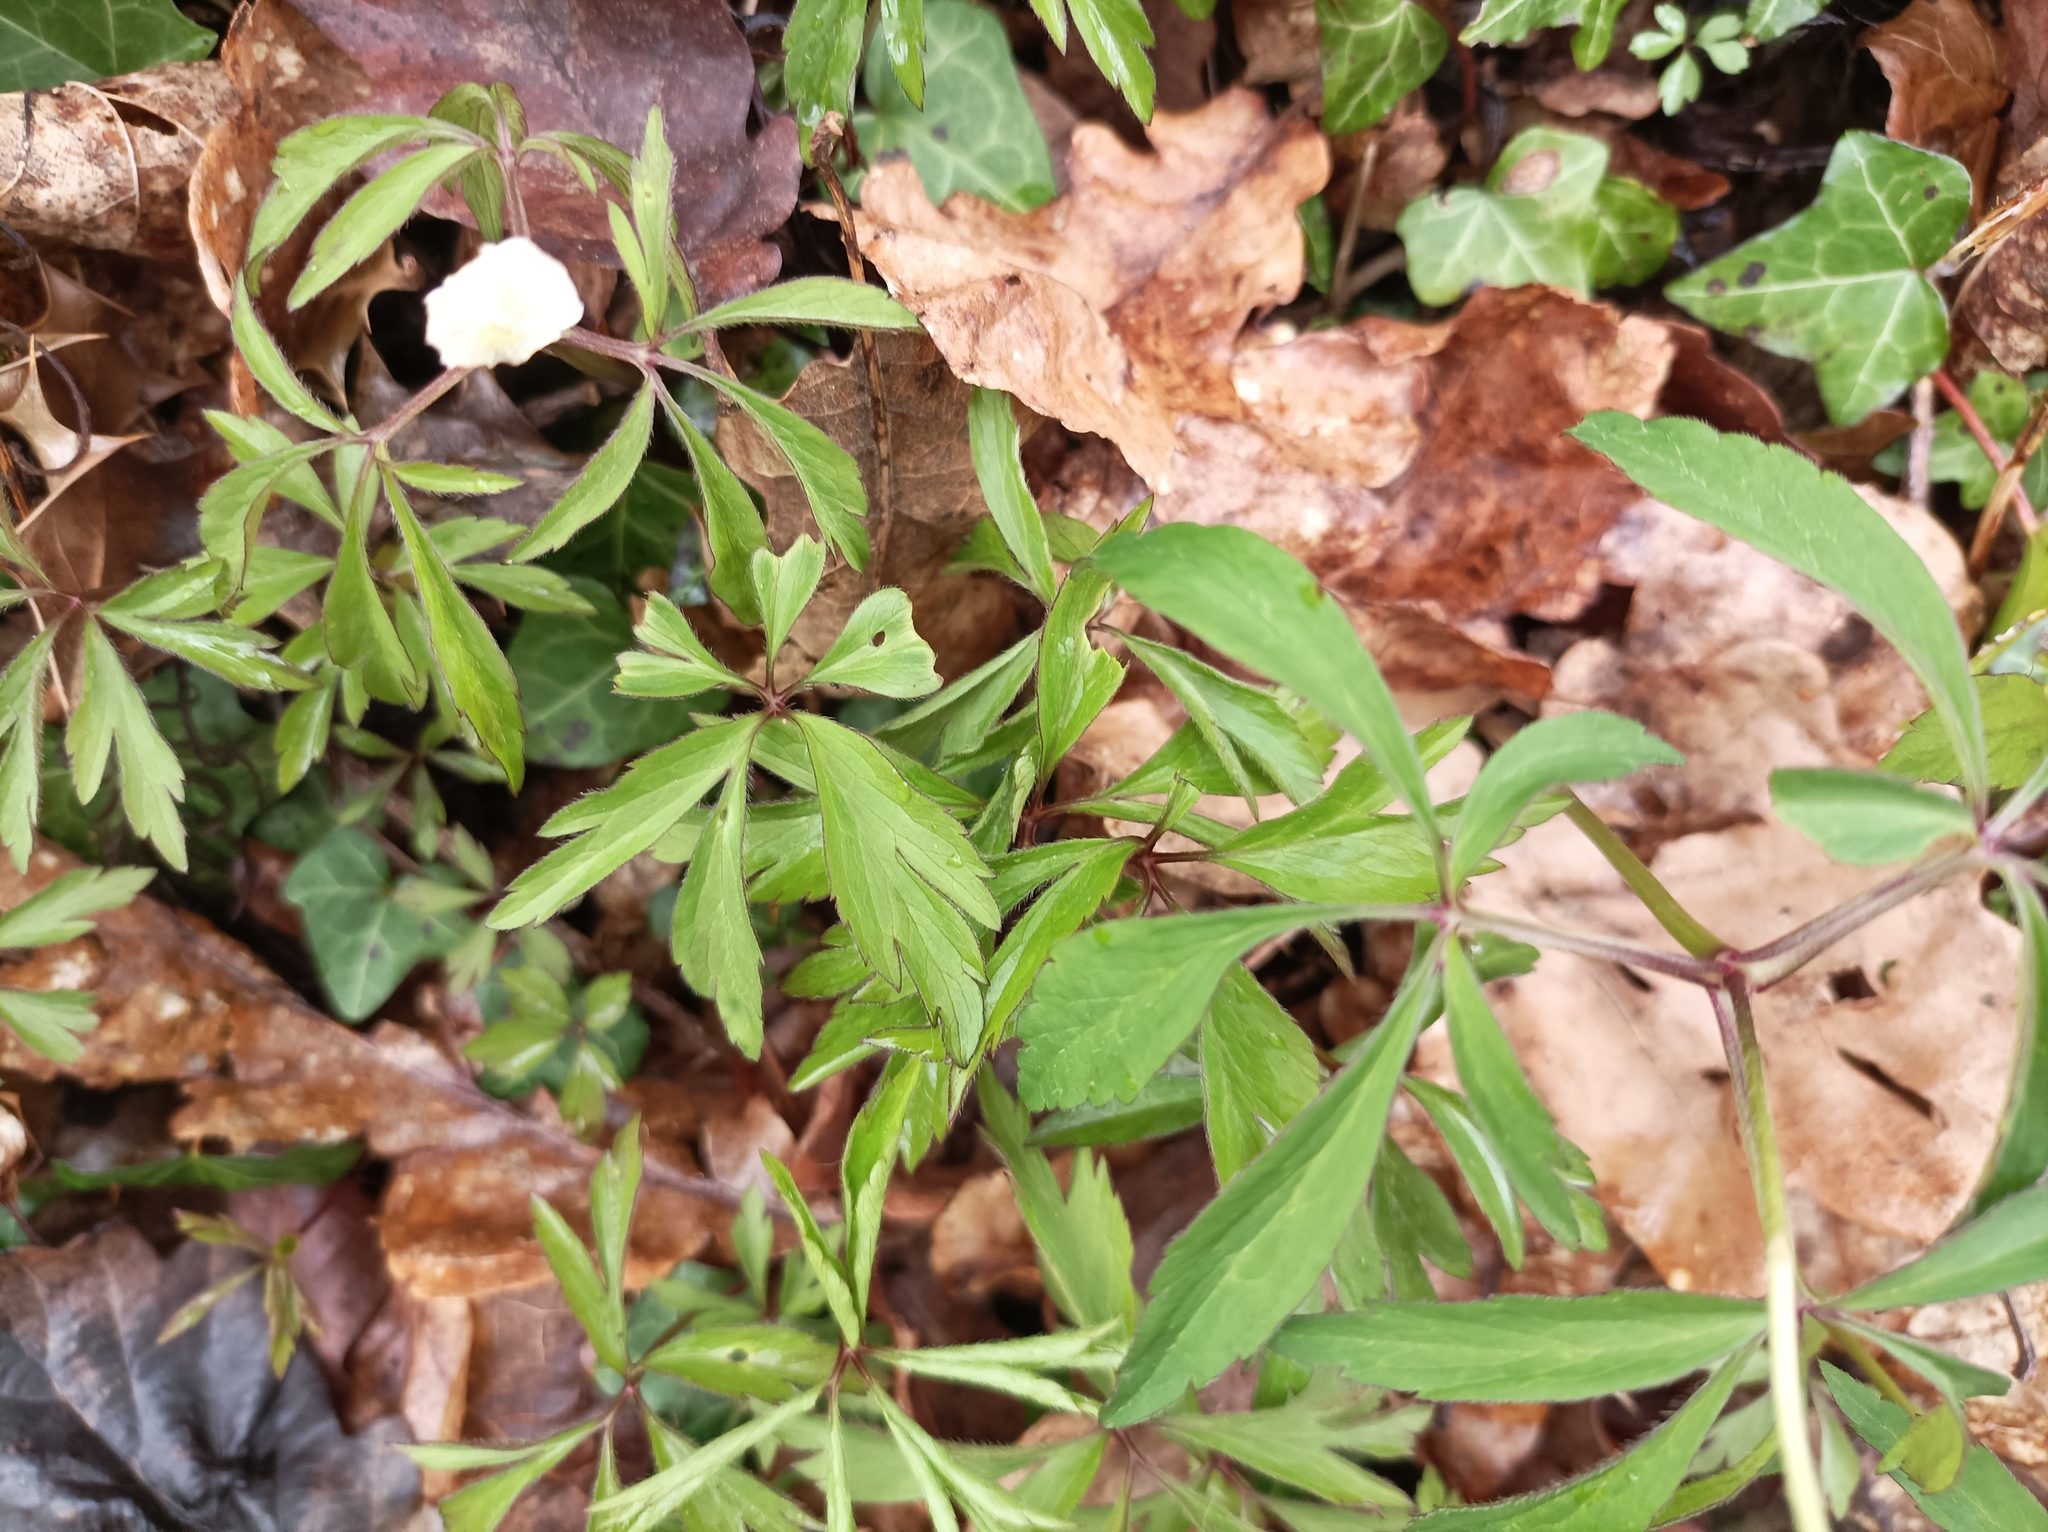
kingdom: Plantae
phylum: Tracheophyta
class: Magnoliopsida
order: Ranunculales
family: Ranunculaceae
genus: Anemone
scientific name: Anemone nemorosa
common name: Wood anemone
